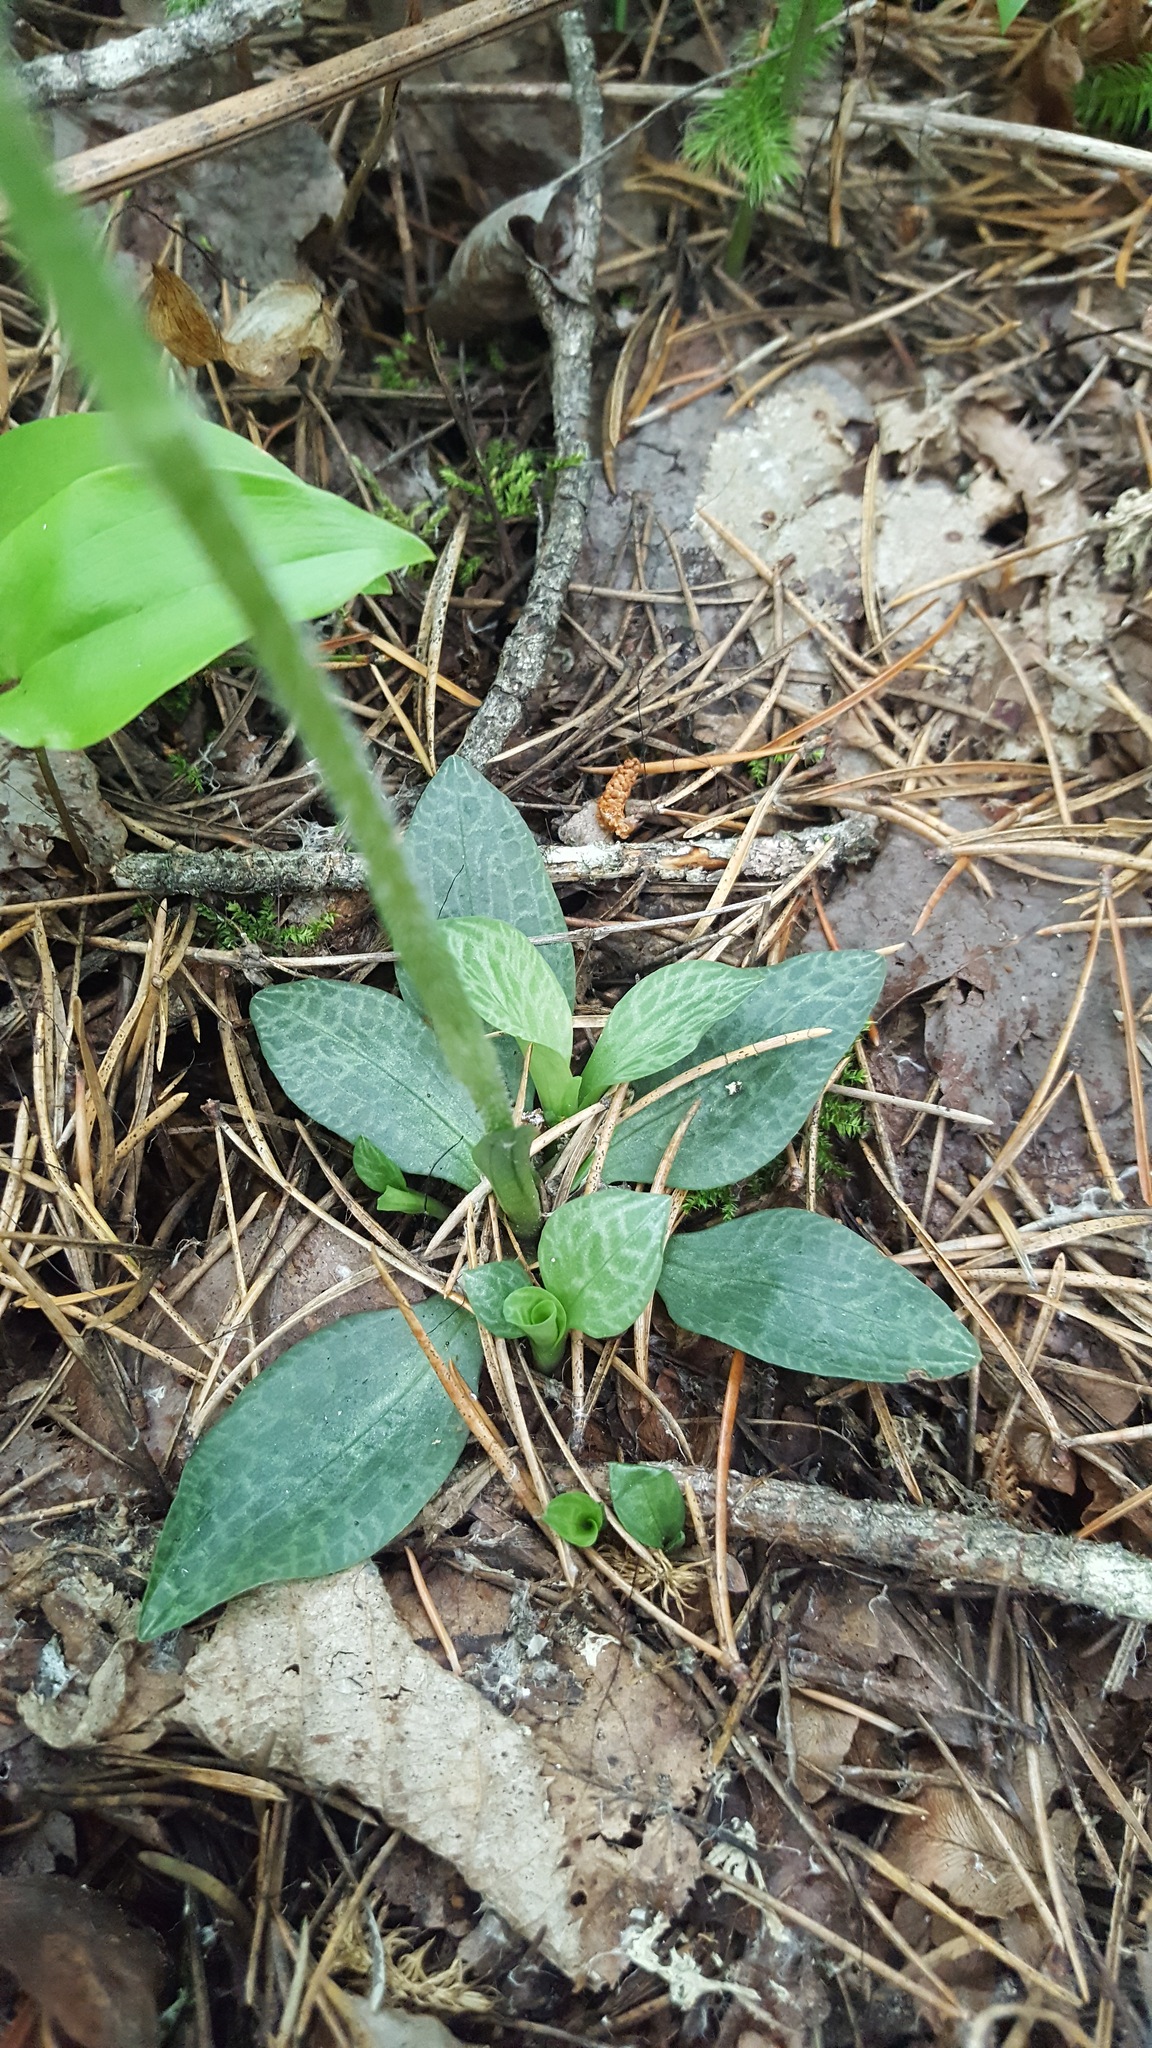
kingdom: Plantae
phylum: Tracheophyta
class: Liliopsida
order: Asparagales
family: Orchidaceae
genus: Goodyera
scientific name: Goodyera tesselata
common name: Checkered rattlesnake-plantain
